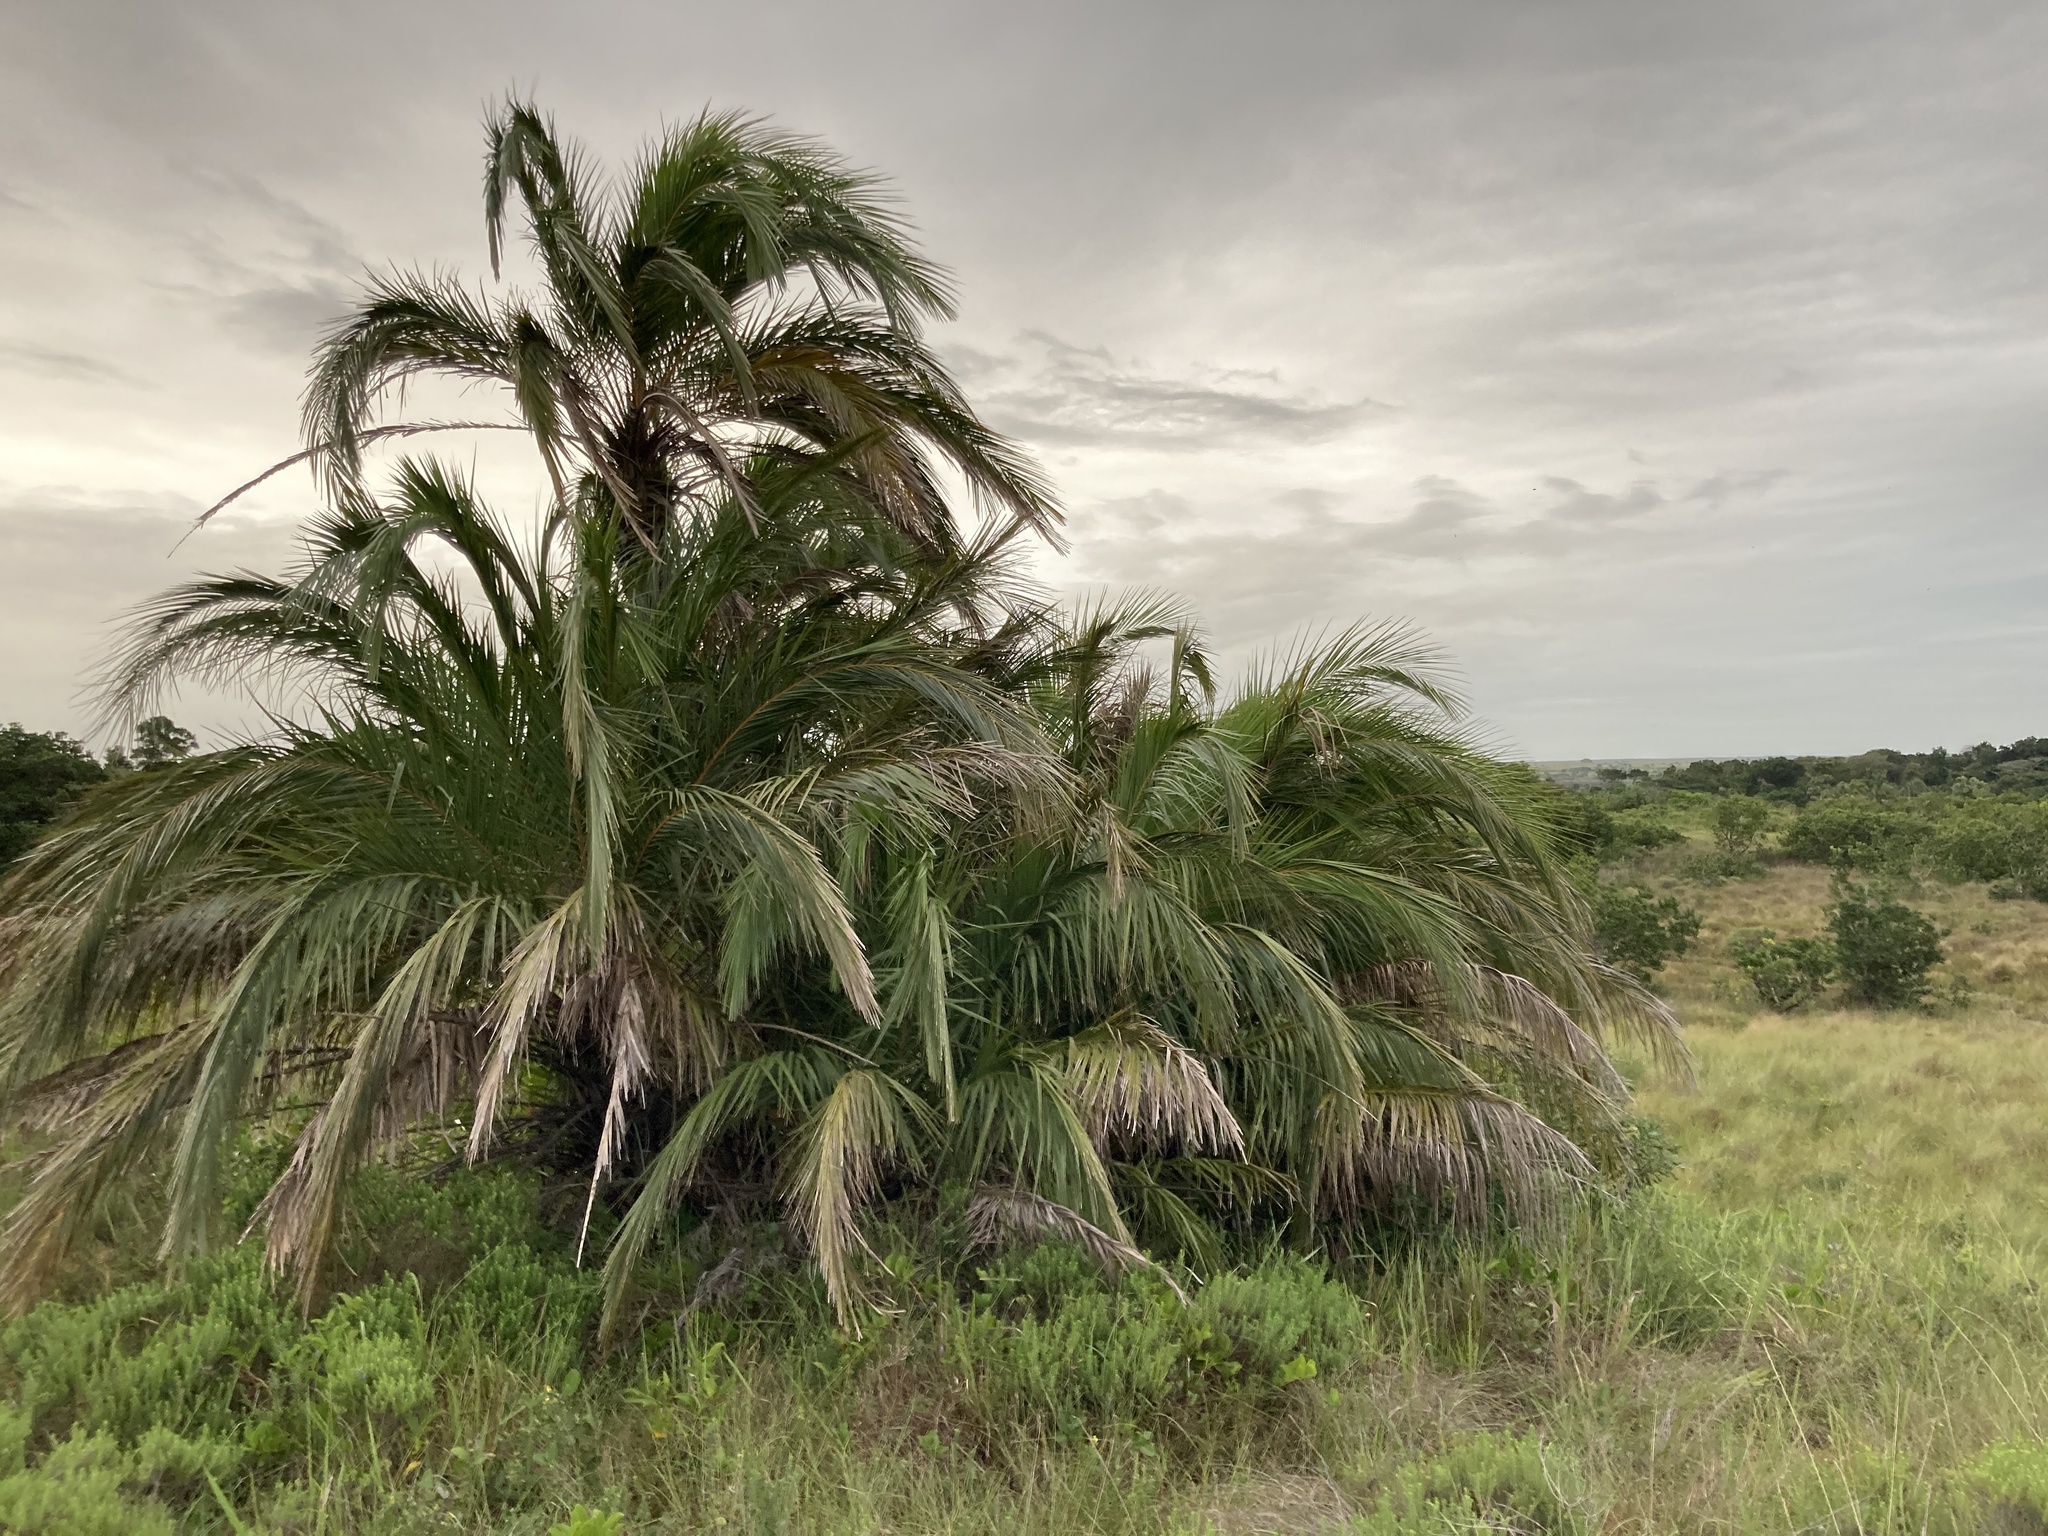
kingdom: Plantae
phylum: Tracheophyta
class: Liliopsida
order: Arecales
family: Arecaceae
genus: Phoenix
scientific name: Phoenix reclinata
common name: Senegal date palm
